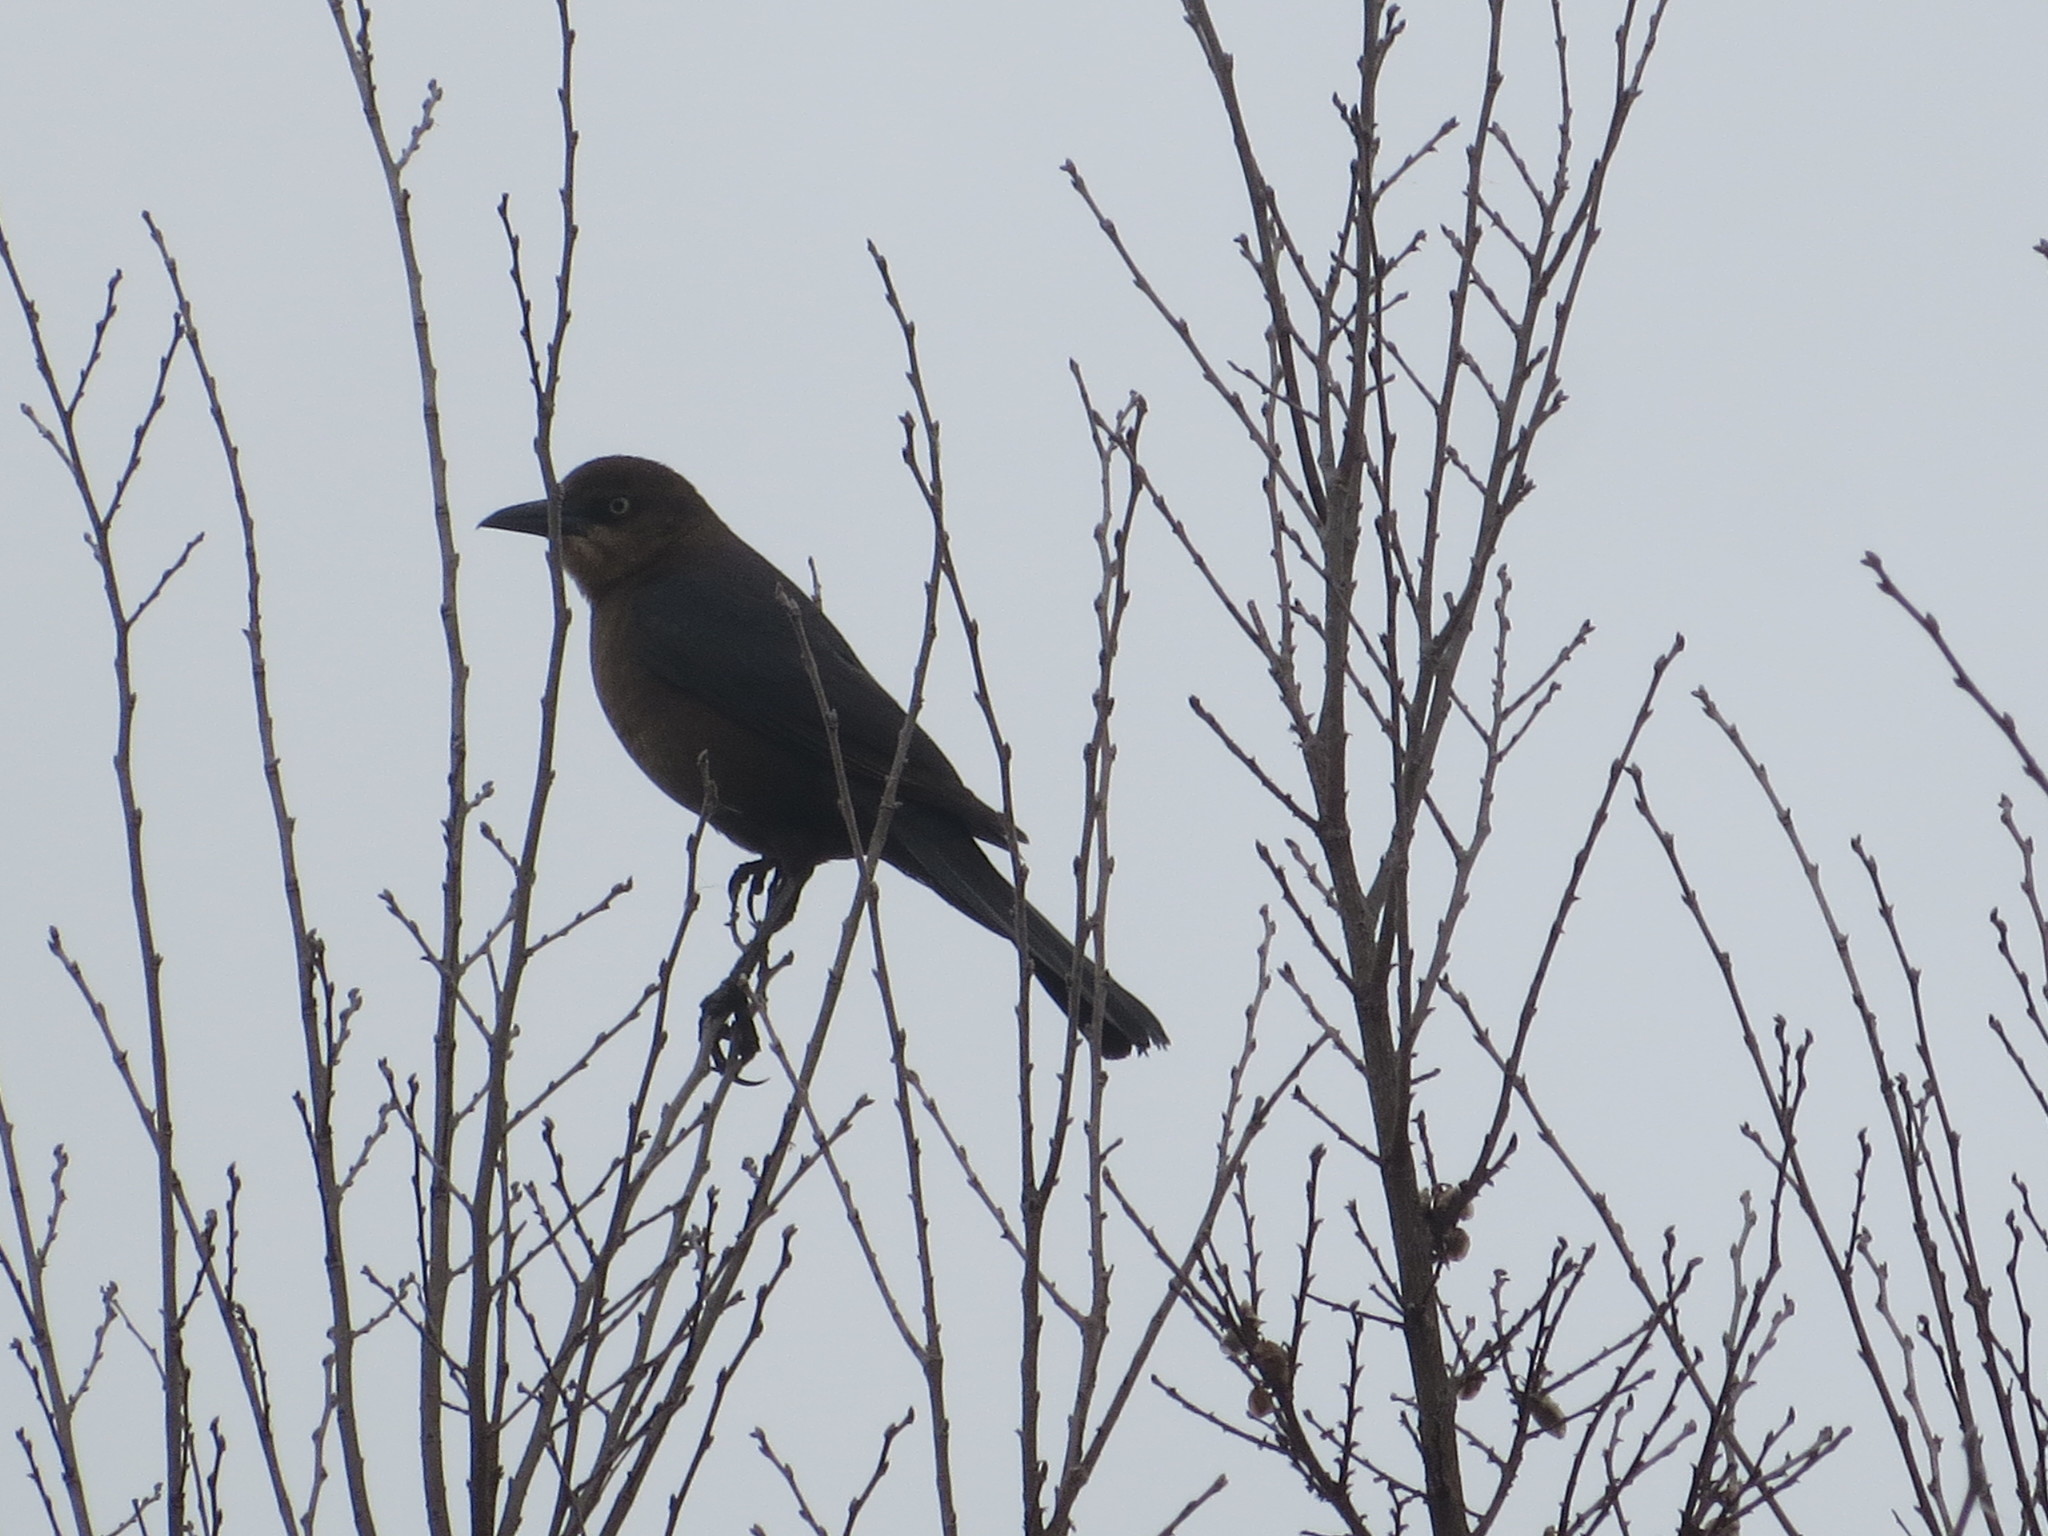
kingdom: Animalia
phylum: Chordata
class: Aves
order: Passeriformes
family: Icteridae
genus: Quiscalus
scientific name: Quiscalus major
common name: Boat-tailed grackle
